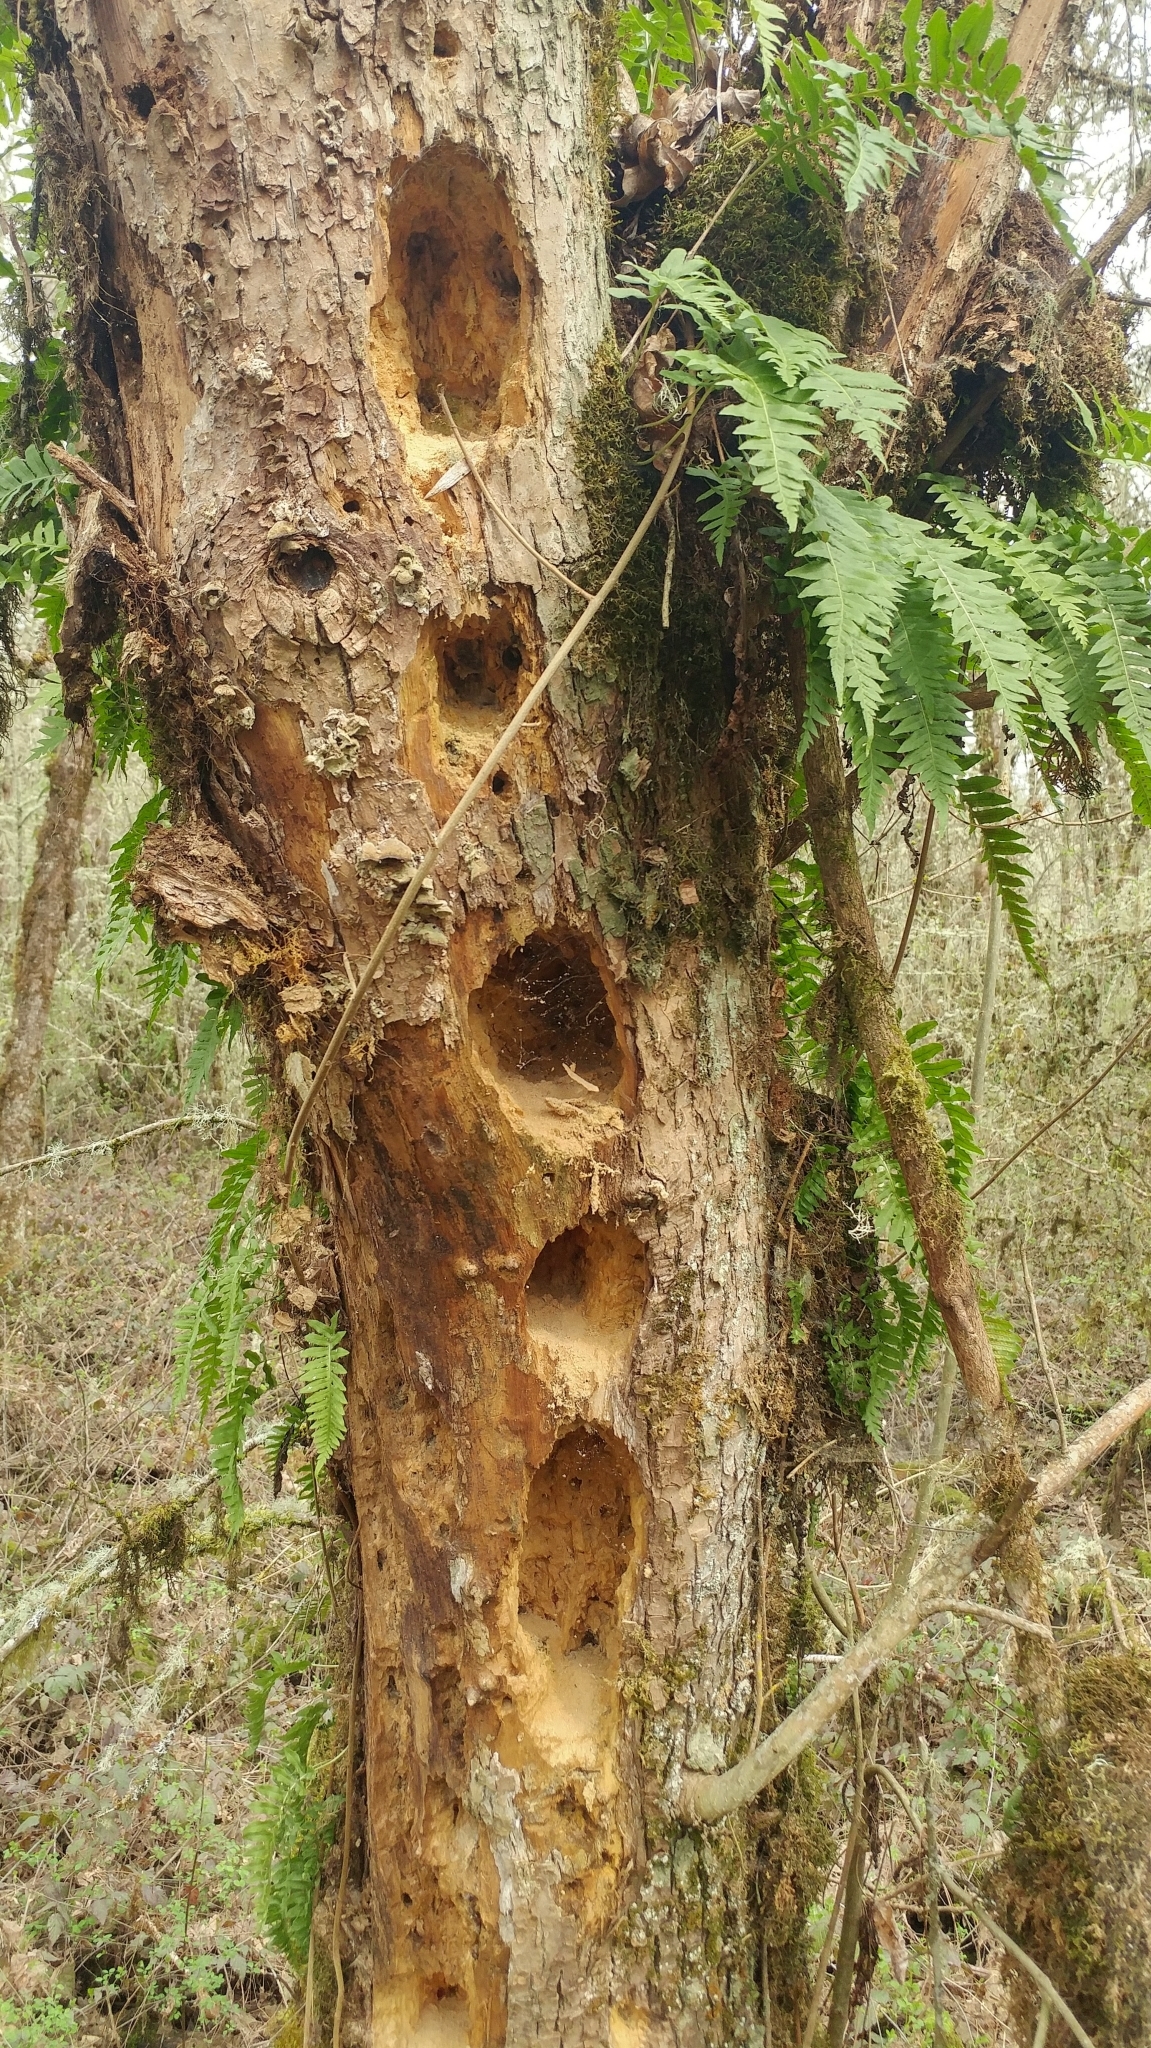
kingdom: Animalia
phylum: Chordata
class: Aves
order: Piciformes
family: Picidae
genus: Dryocopus
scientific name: Dryocopus pileatus
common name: Pileated woodpecker
